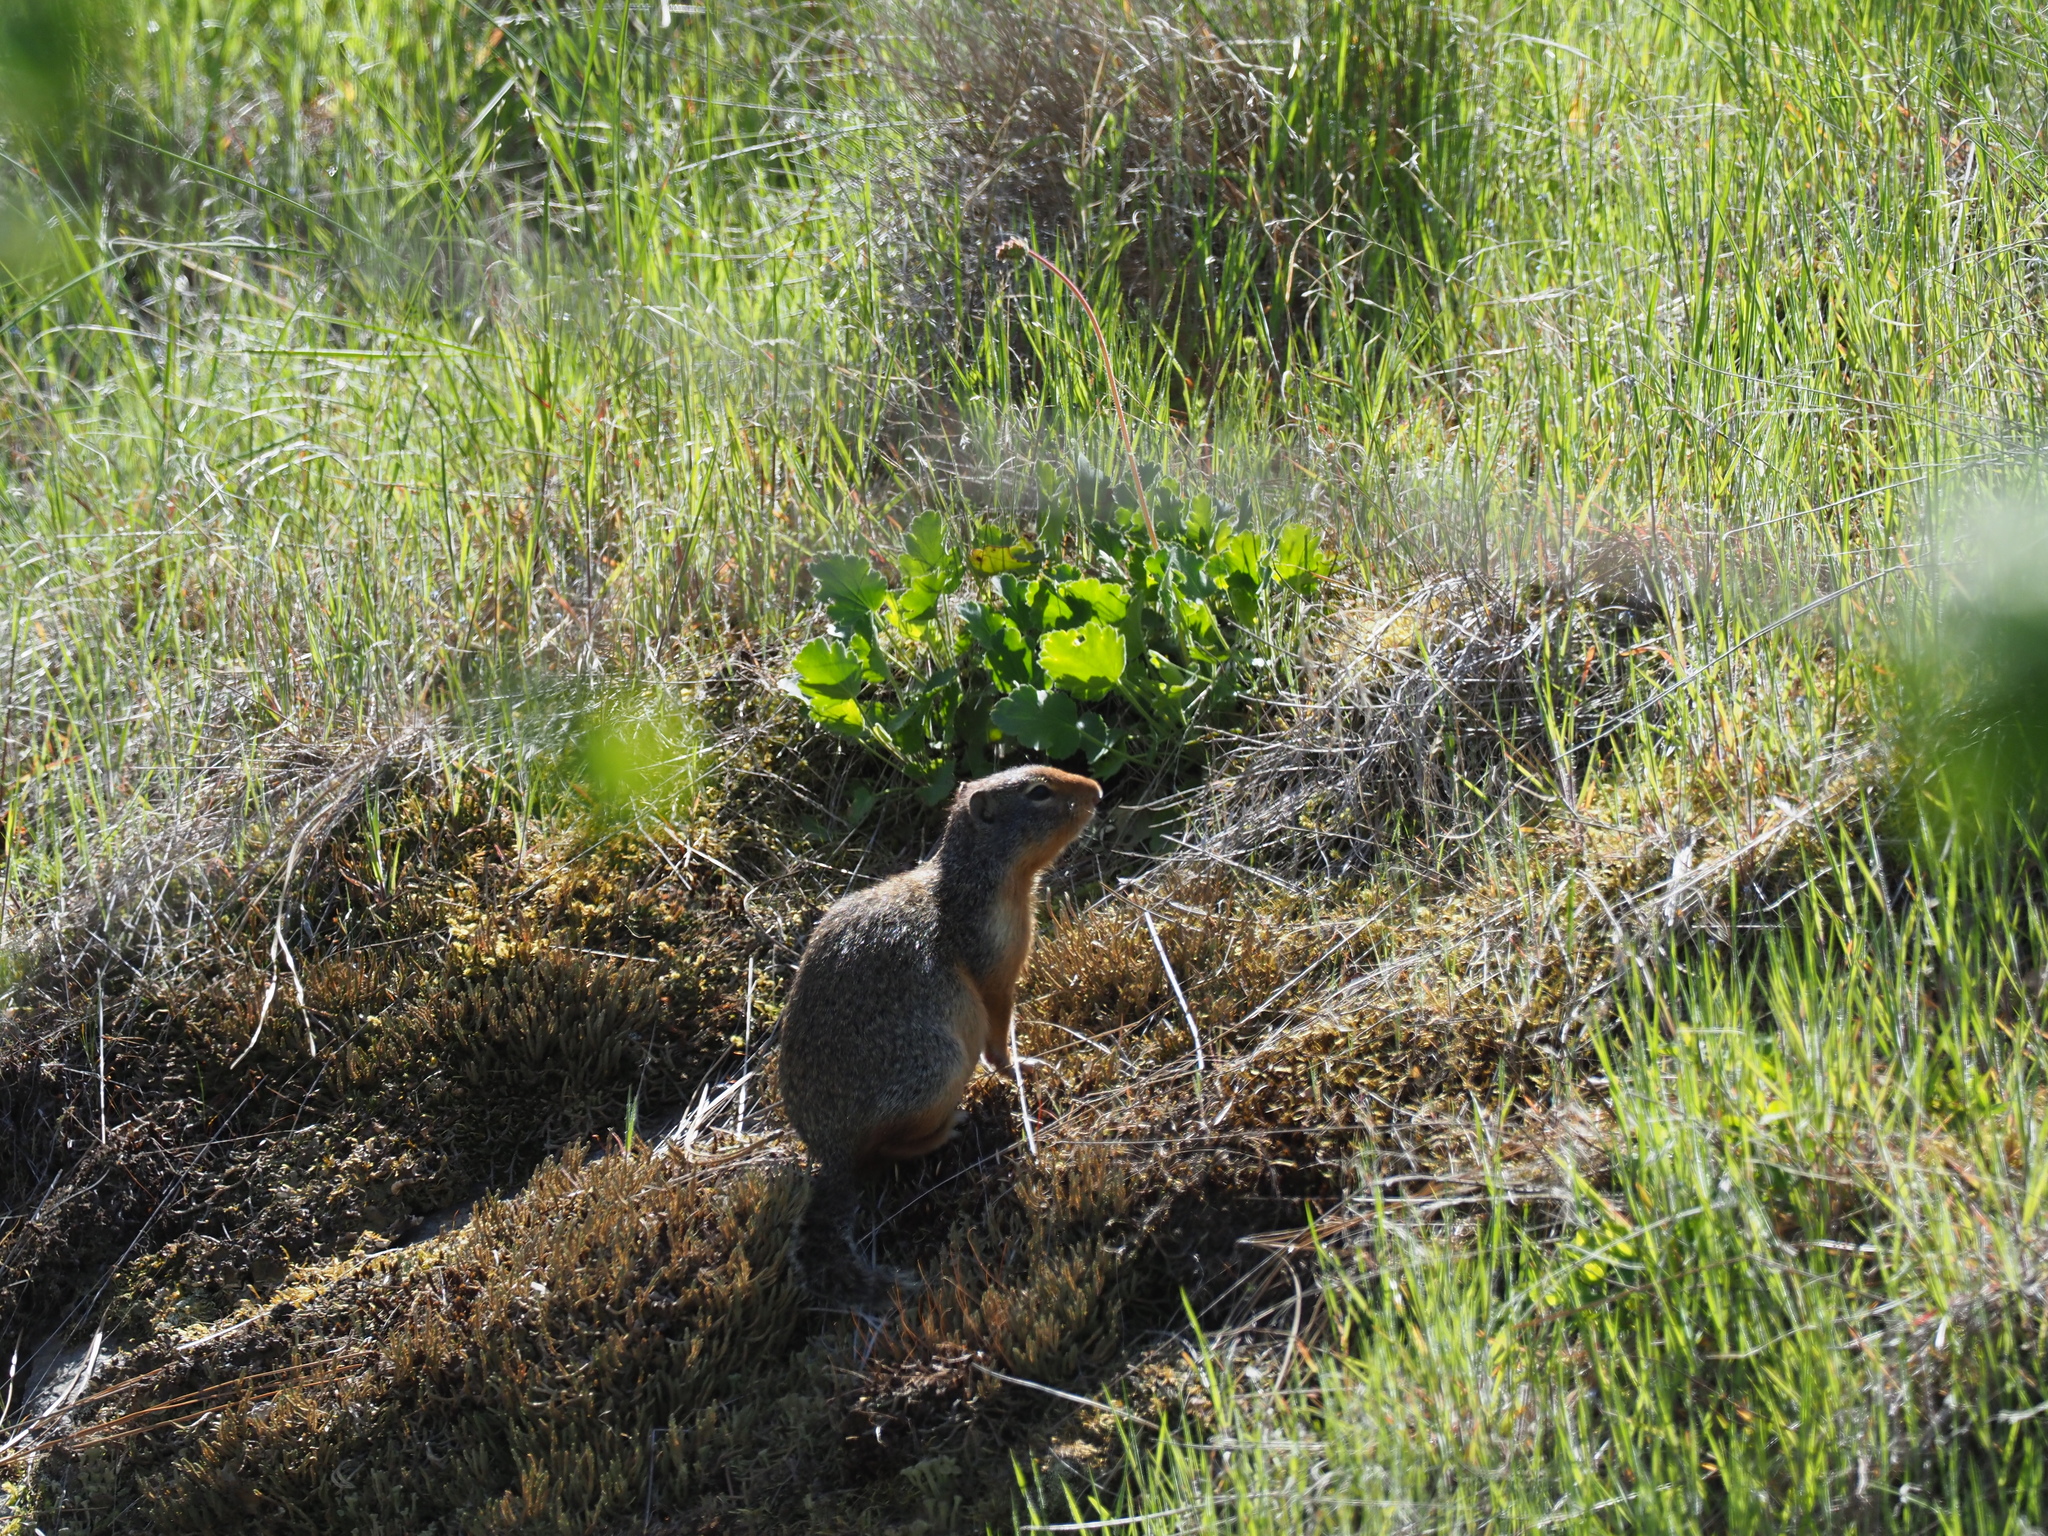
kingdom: Animalia
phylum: Chordata
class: Mammalia
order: Rodentia
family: Sciuridae
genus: Urocitellus
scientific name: Urocitellus columbianus
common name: Columbian ground squirrel
